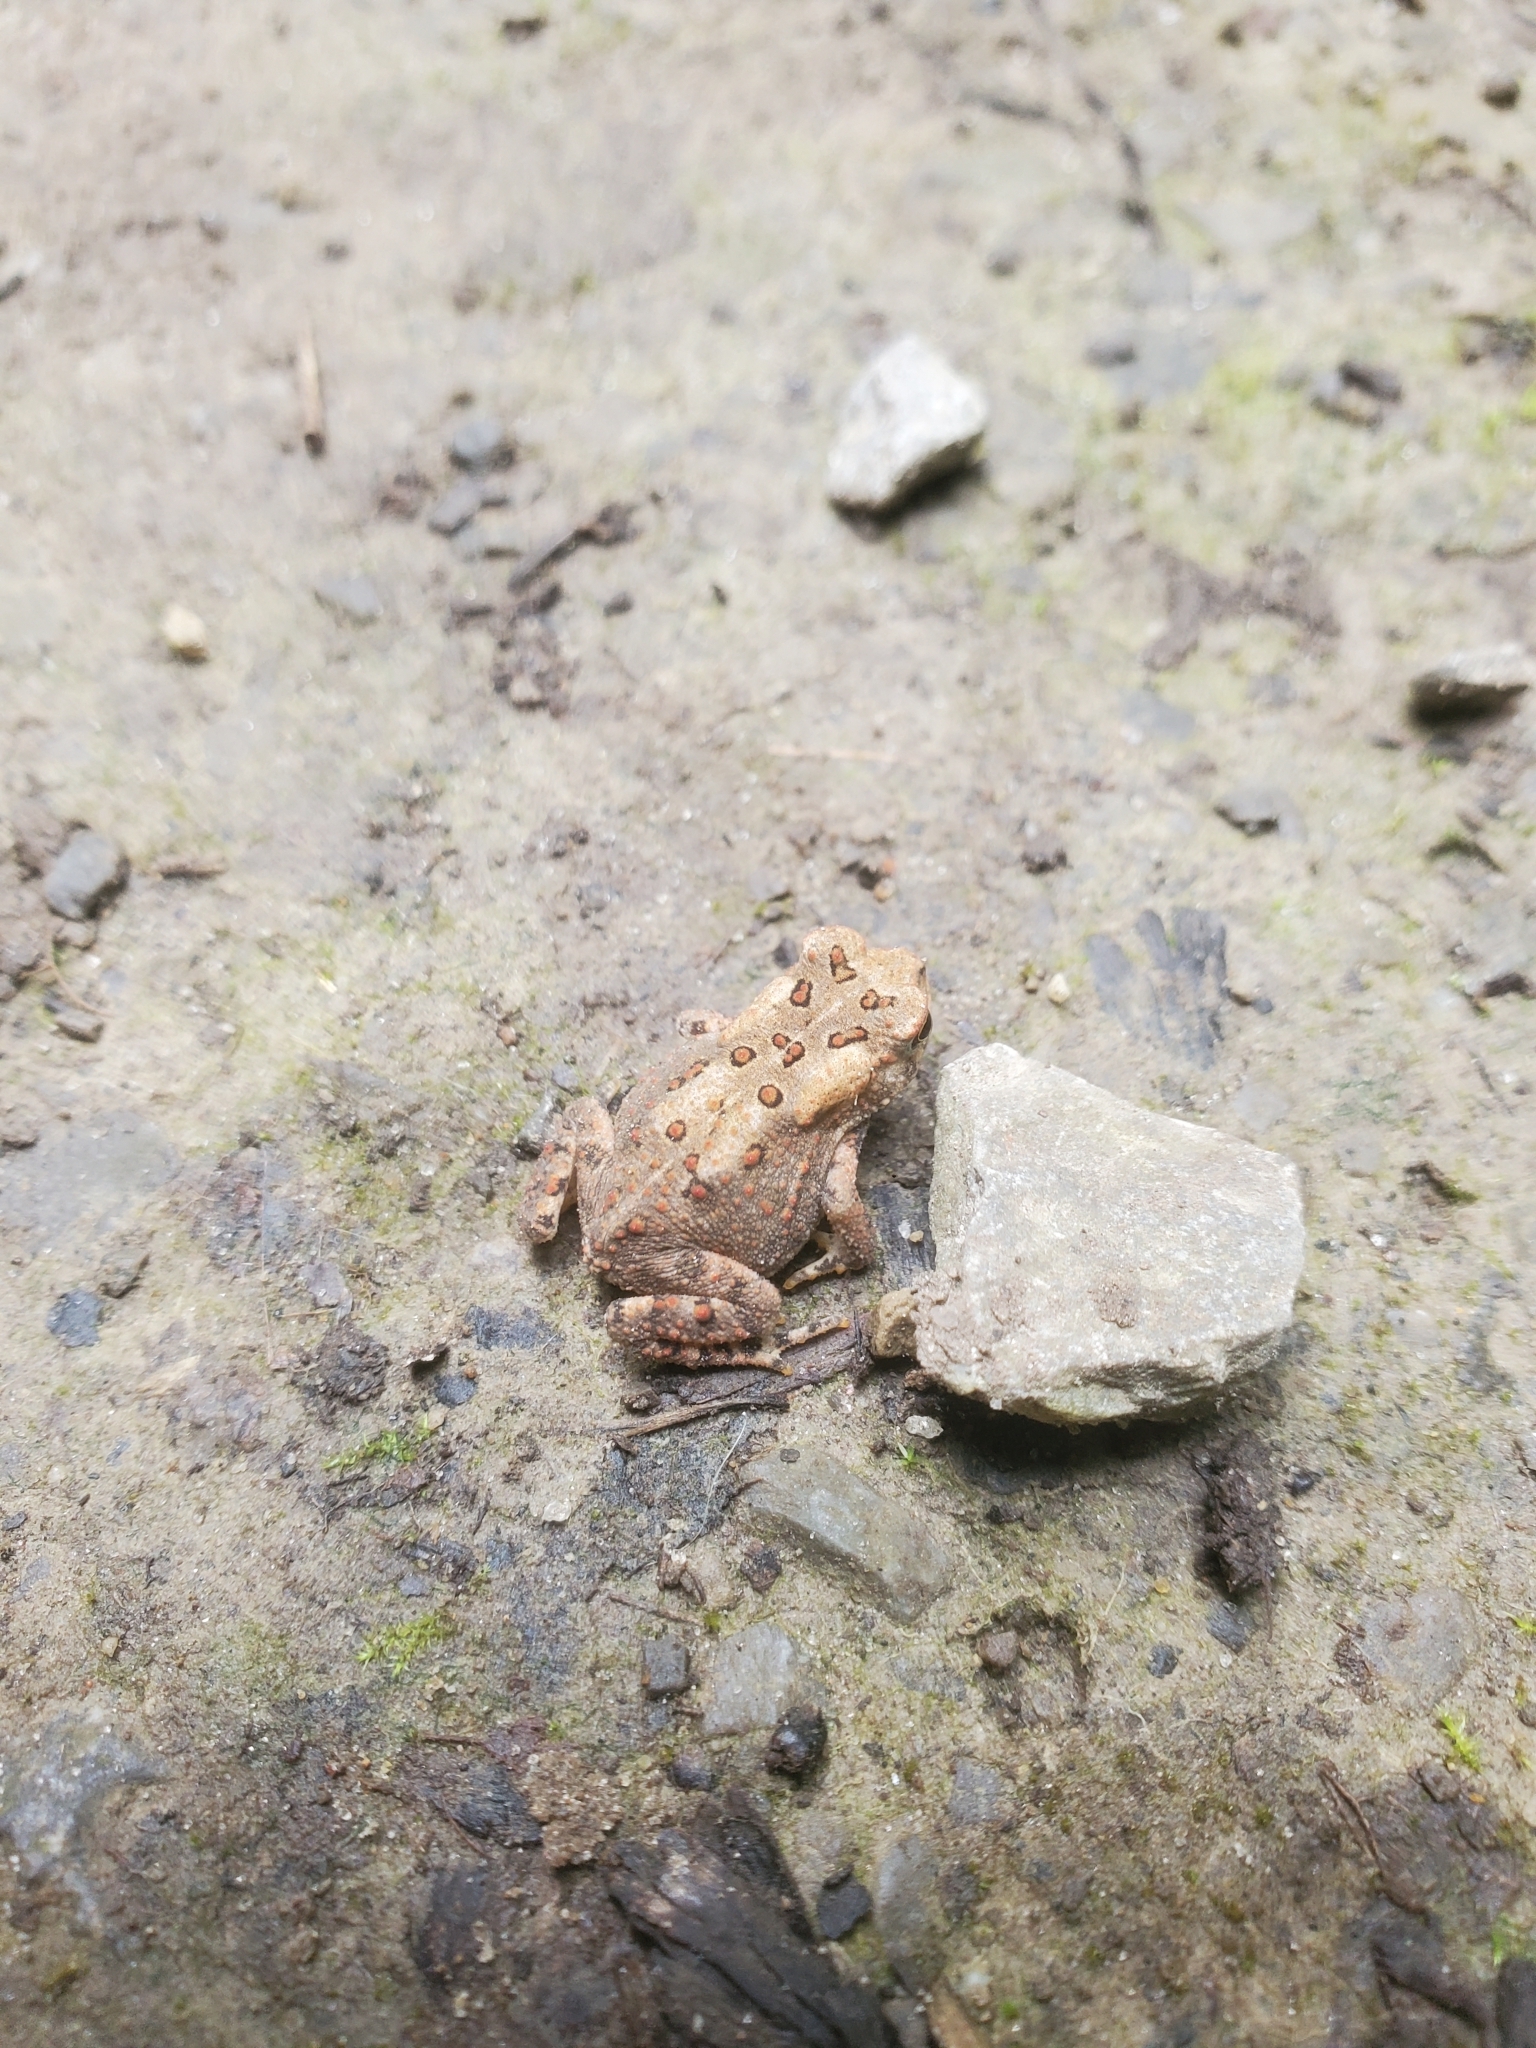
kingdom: Animalia
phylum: Chordata
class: Amphibia
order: Anura
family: Bufonidae
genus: Anaxyrus
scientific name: Anaxyrus americanus
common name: American toad
